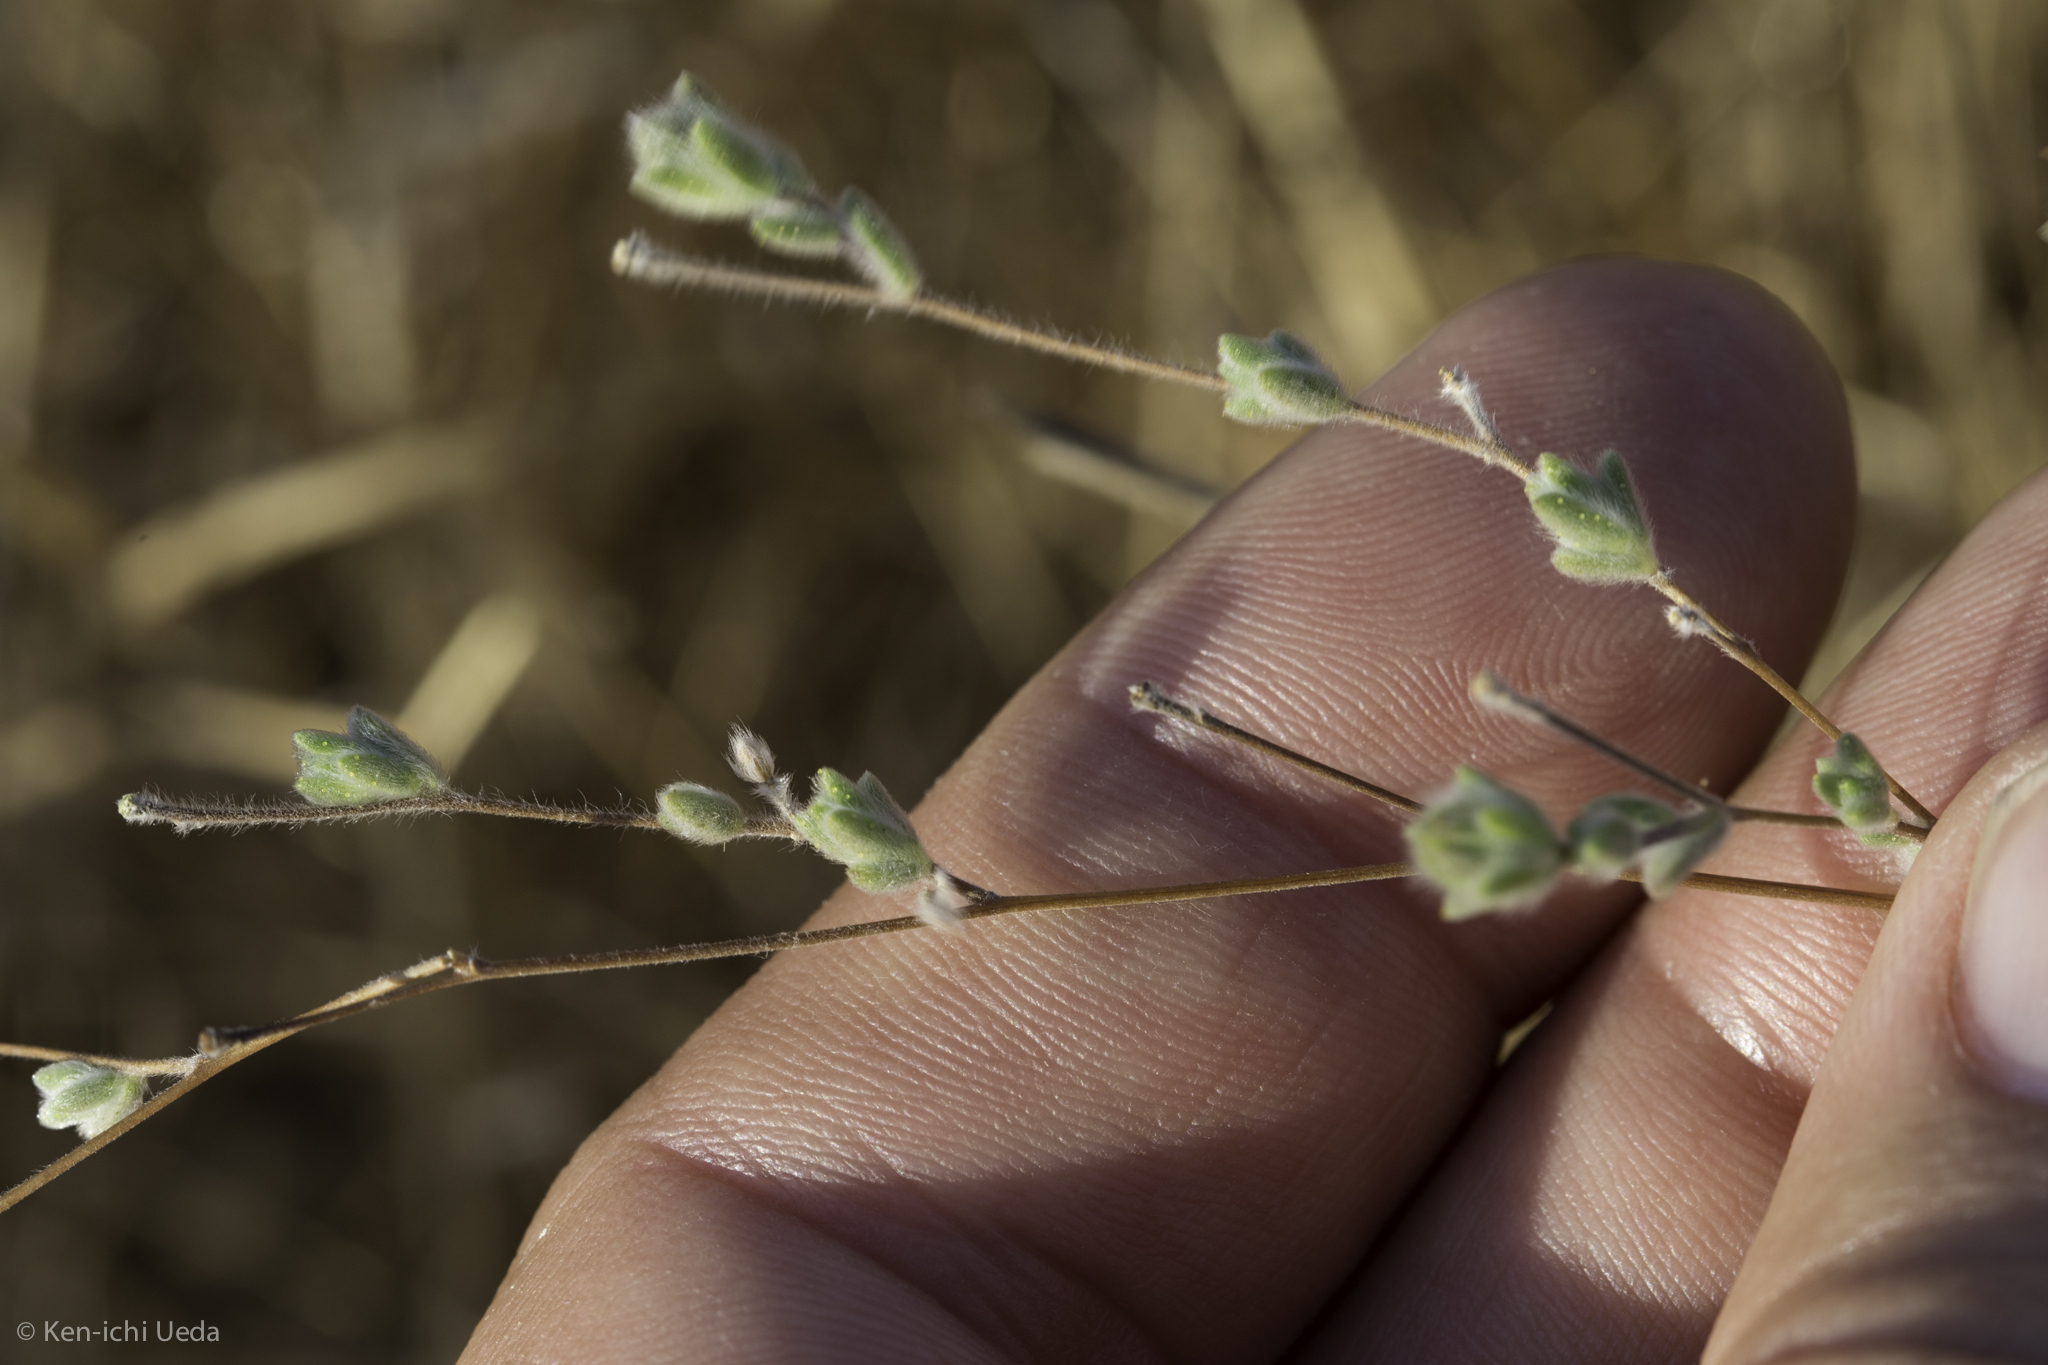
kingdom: Plantae
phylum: Tracheophyta
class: Magnoliopsida
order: Asterales
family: Asteraceae
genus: Lagophylla
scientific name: Lagophylla ramosissima
